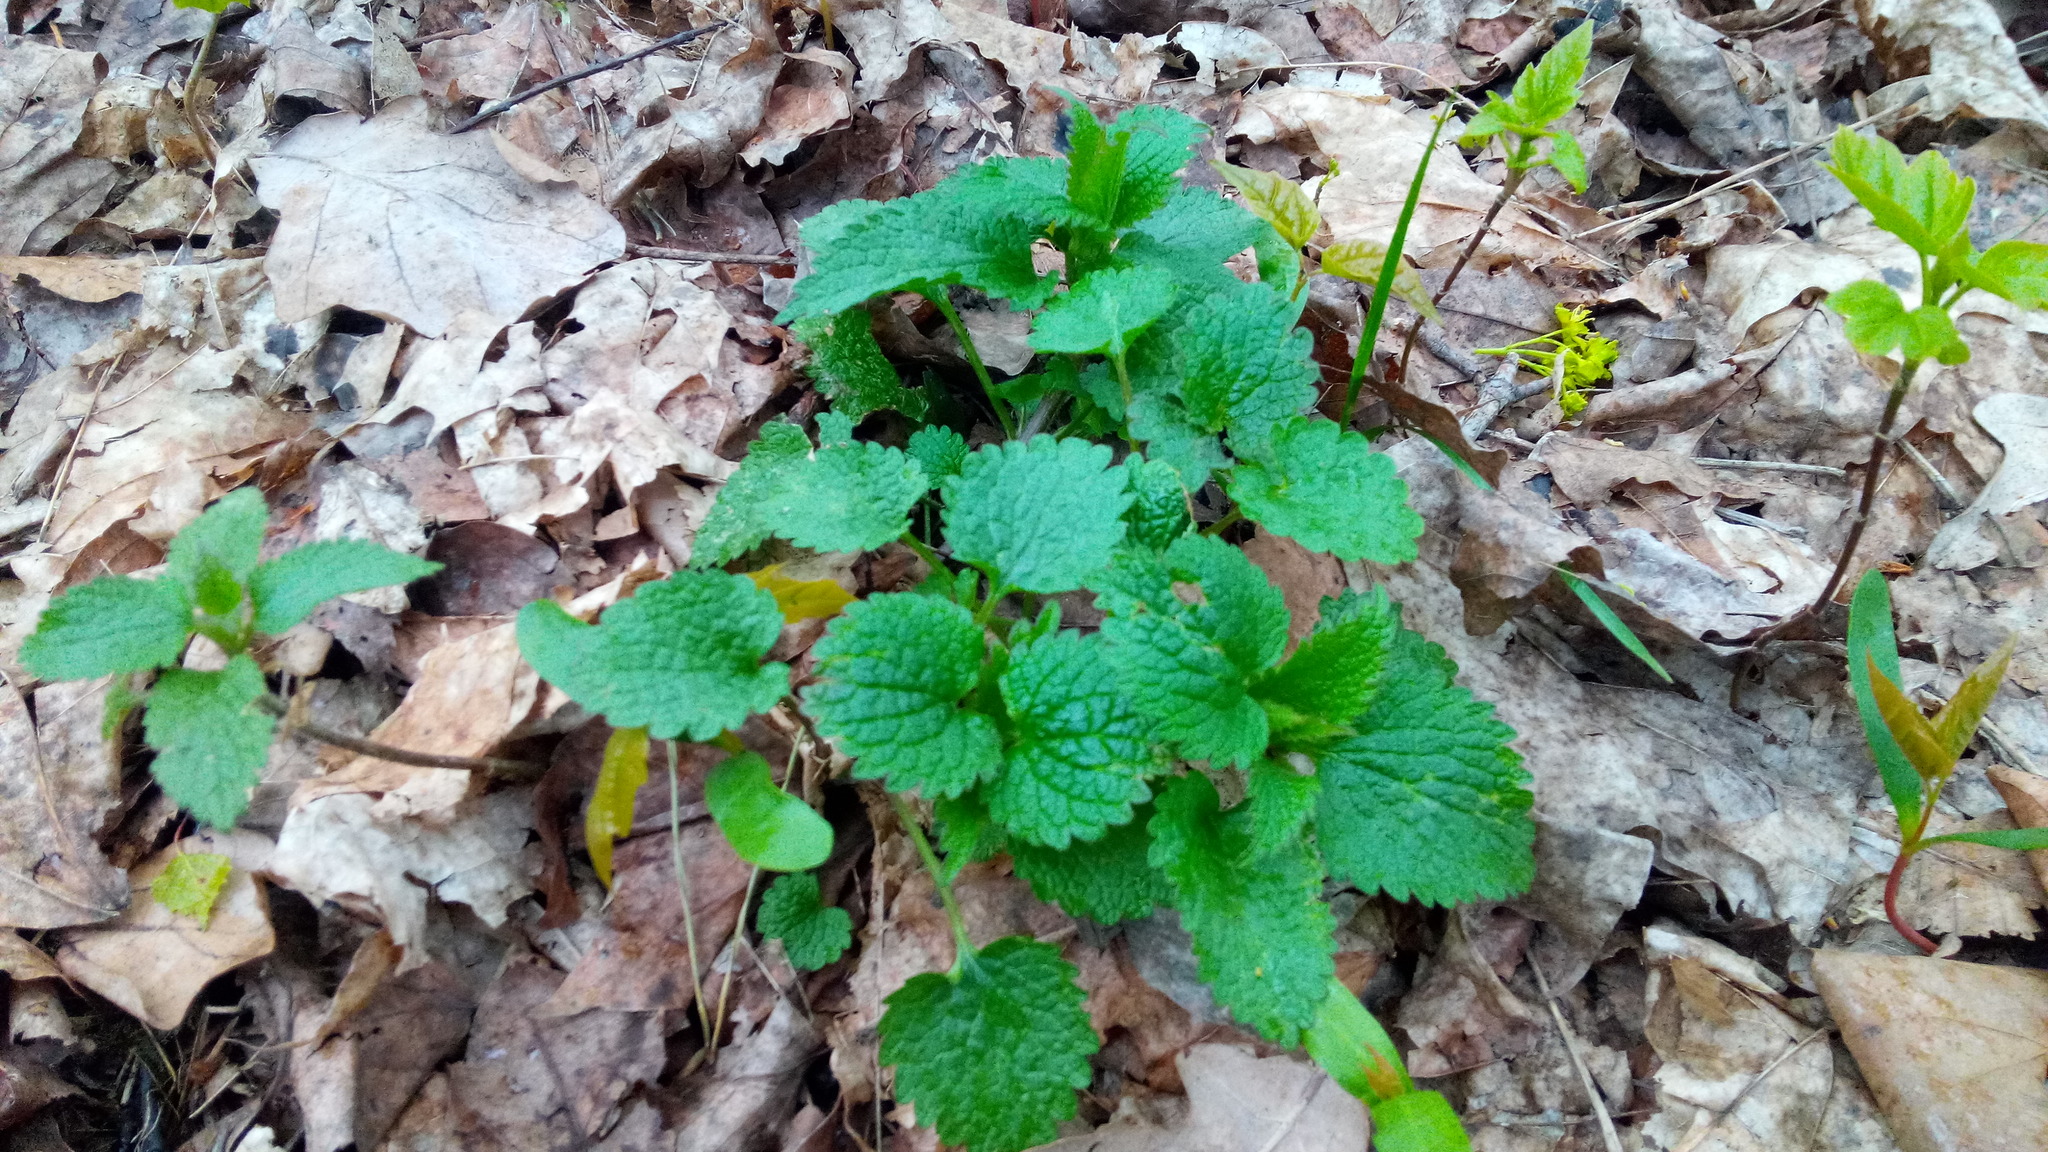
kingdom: Plantae
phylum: Tracheophyta
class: Magnoliopsida
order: Lamiales
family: Lamiaceae
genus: Lamium
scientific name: Lamium album
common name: White dead-nettle
